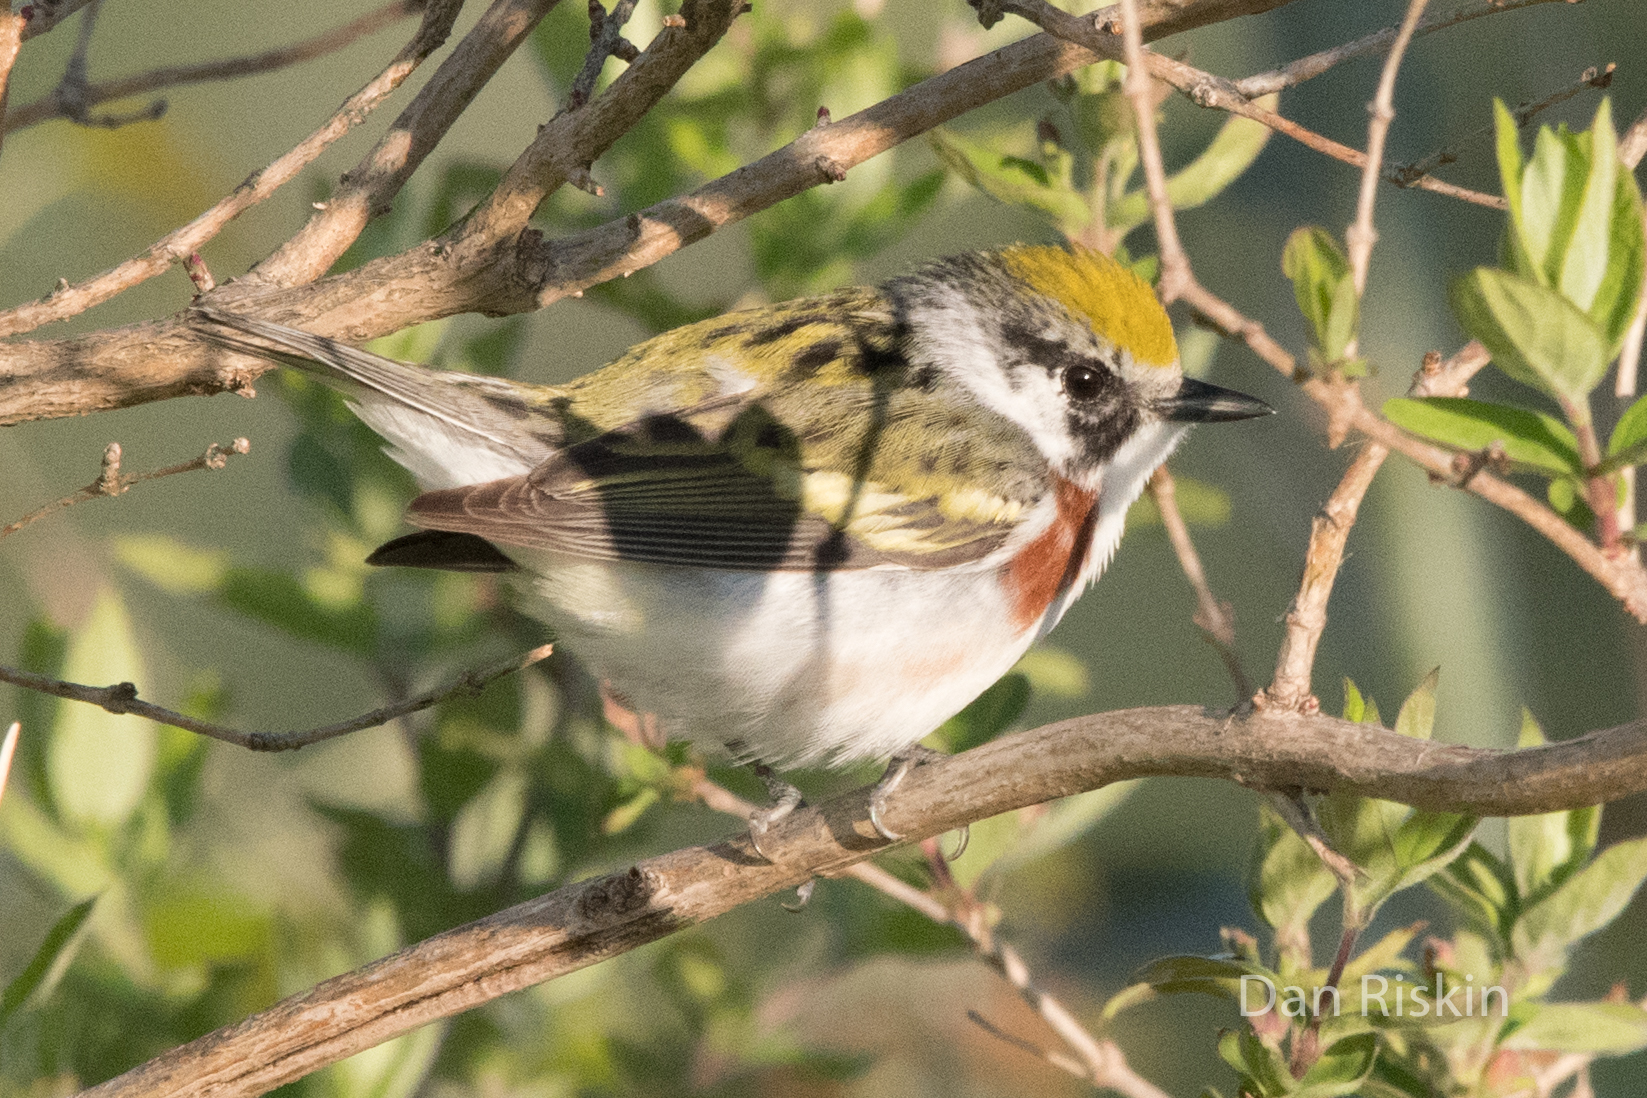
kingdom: Animalia
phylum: Chordata
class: Aves
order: Passeriformes
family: Parulidae
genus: Setophaga
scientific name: Setophaga pensylvanica
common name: Chestnut-sided warbler
